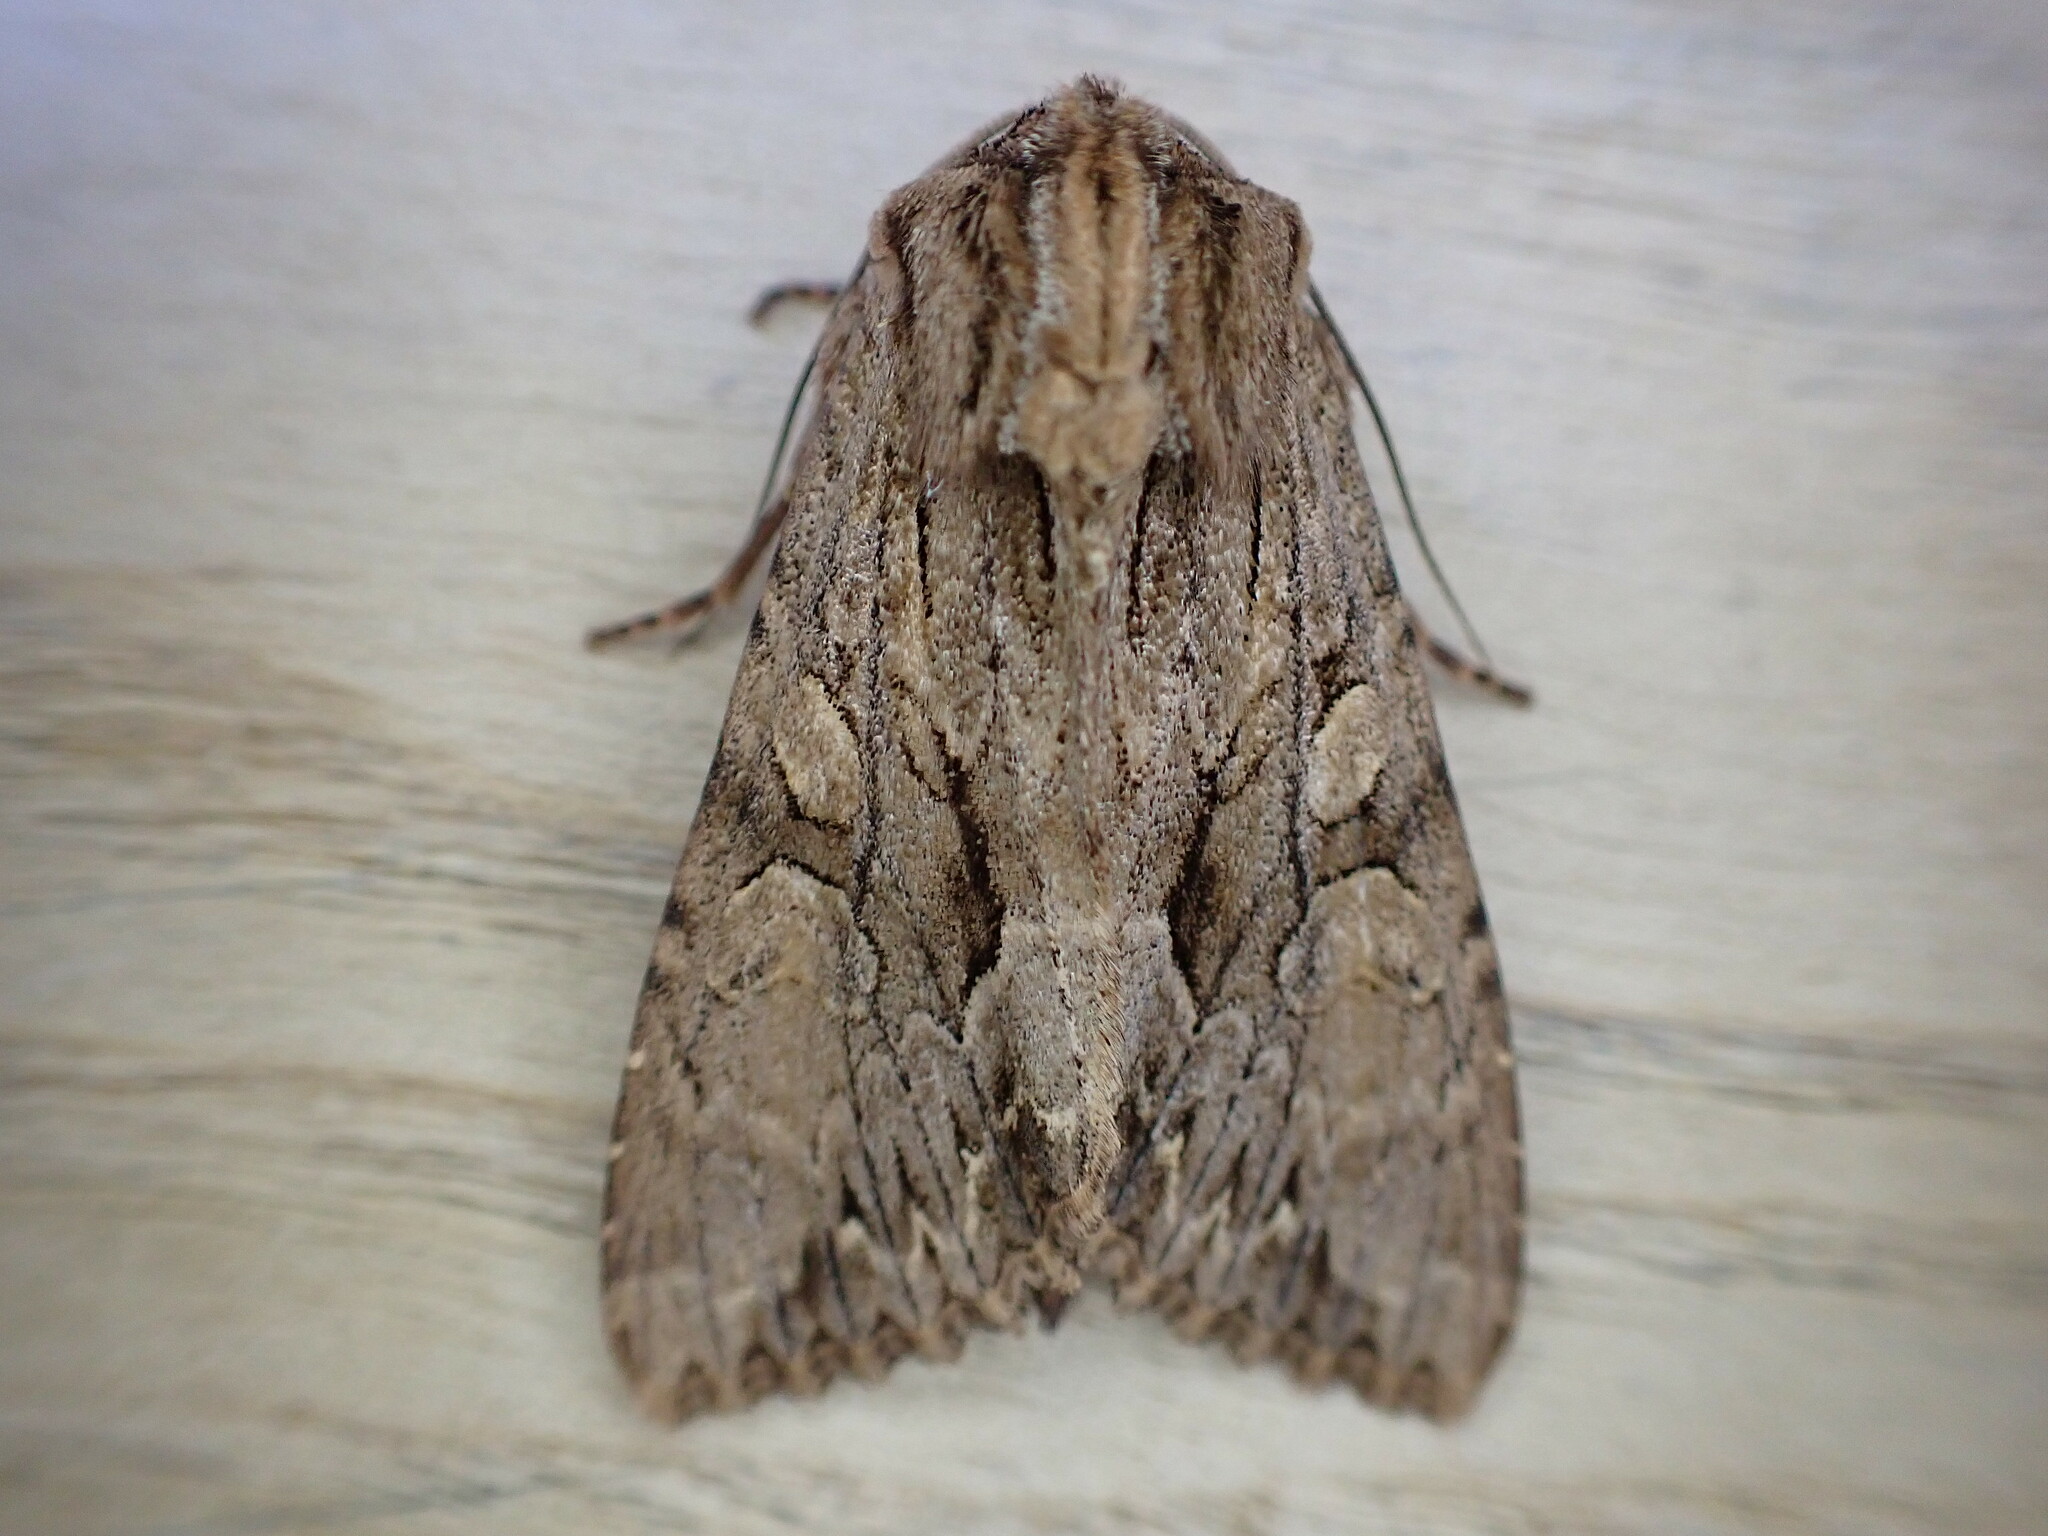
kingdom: Animalia
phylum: Arthropoda
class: Insecta
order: Lepidoptera
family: Noctuidae
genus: Apamea
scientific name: Apamea monoglypha
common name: Dark arches
